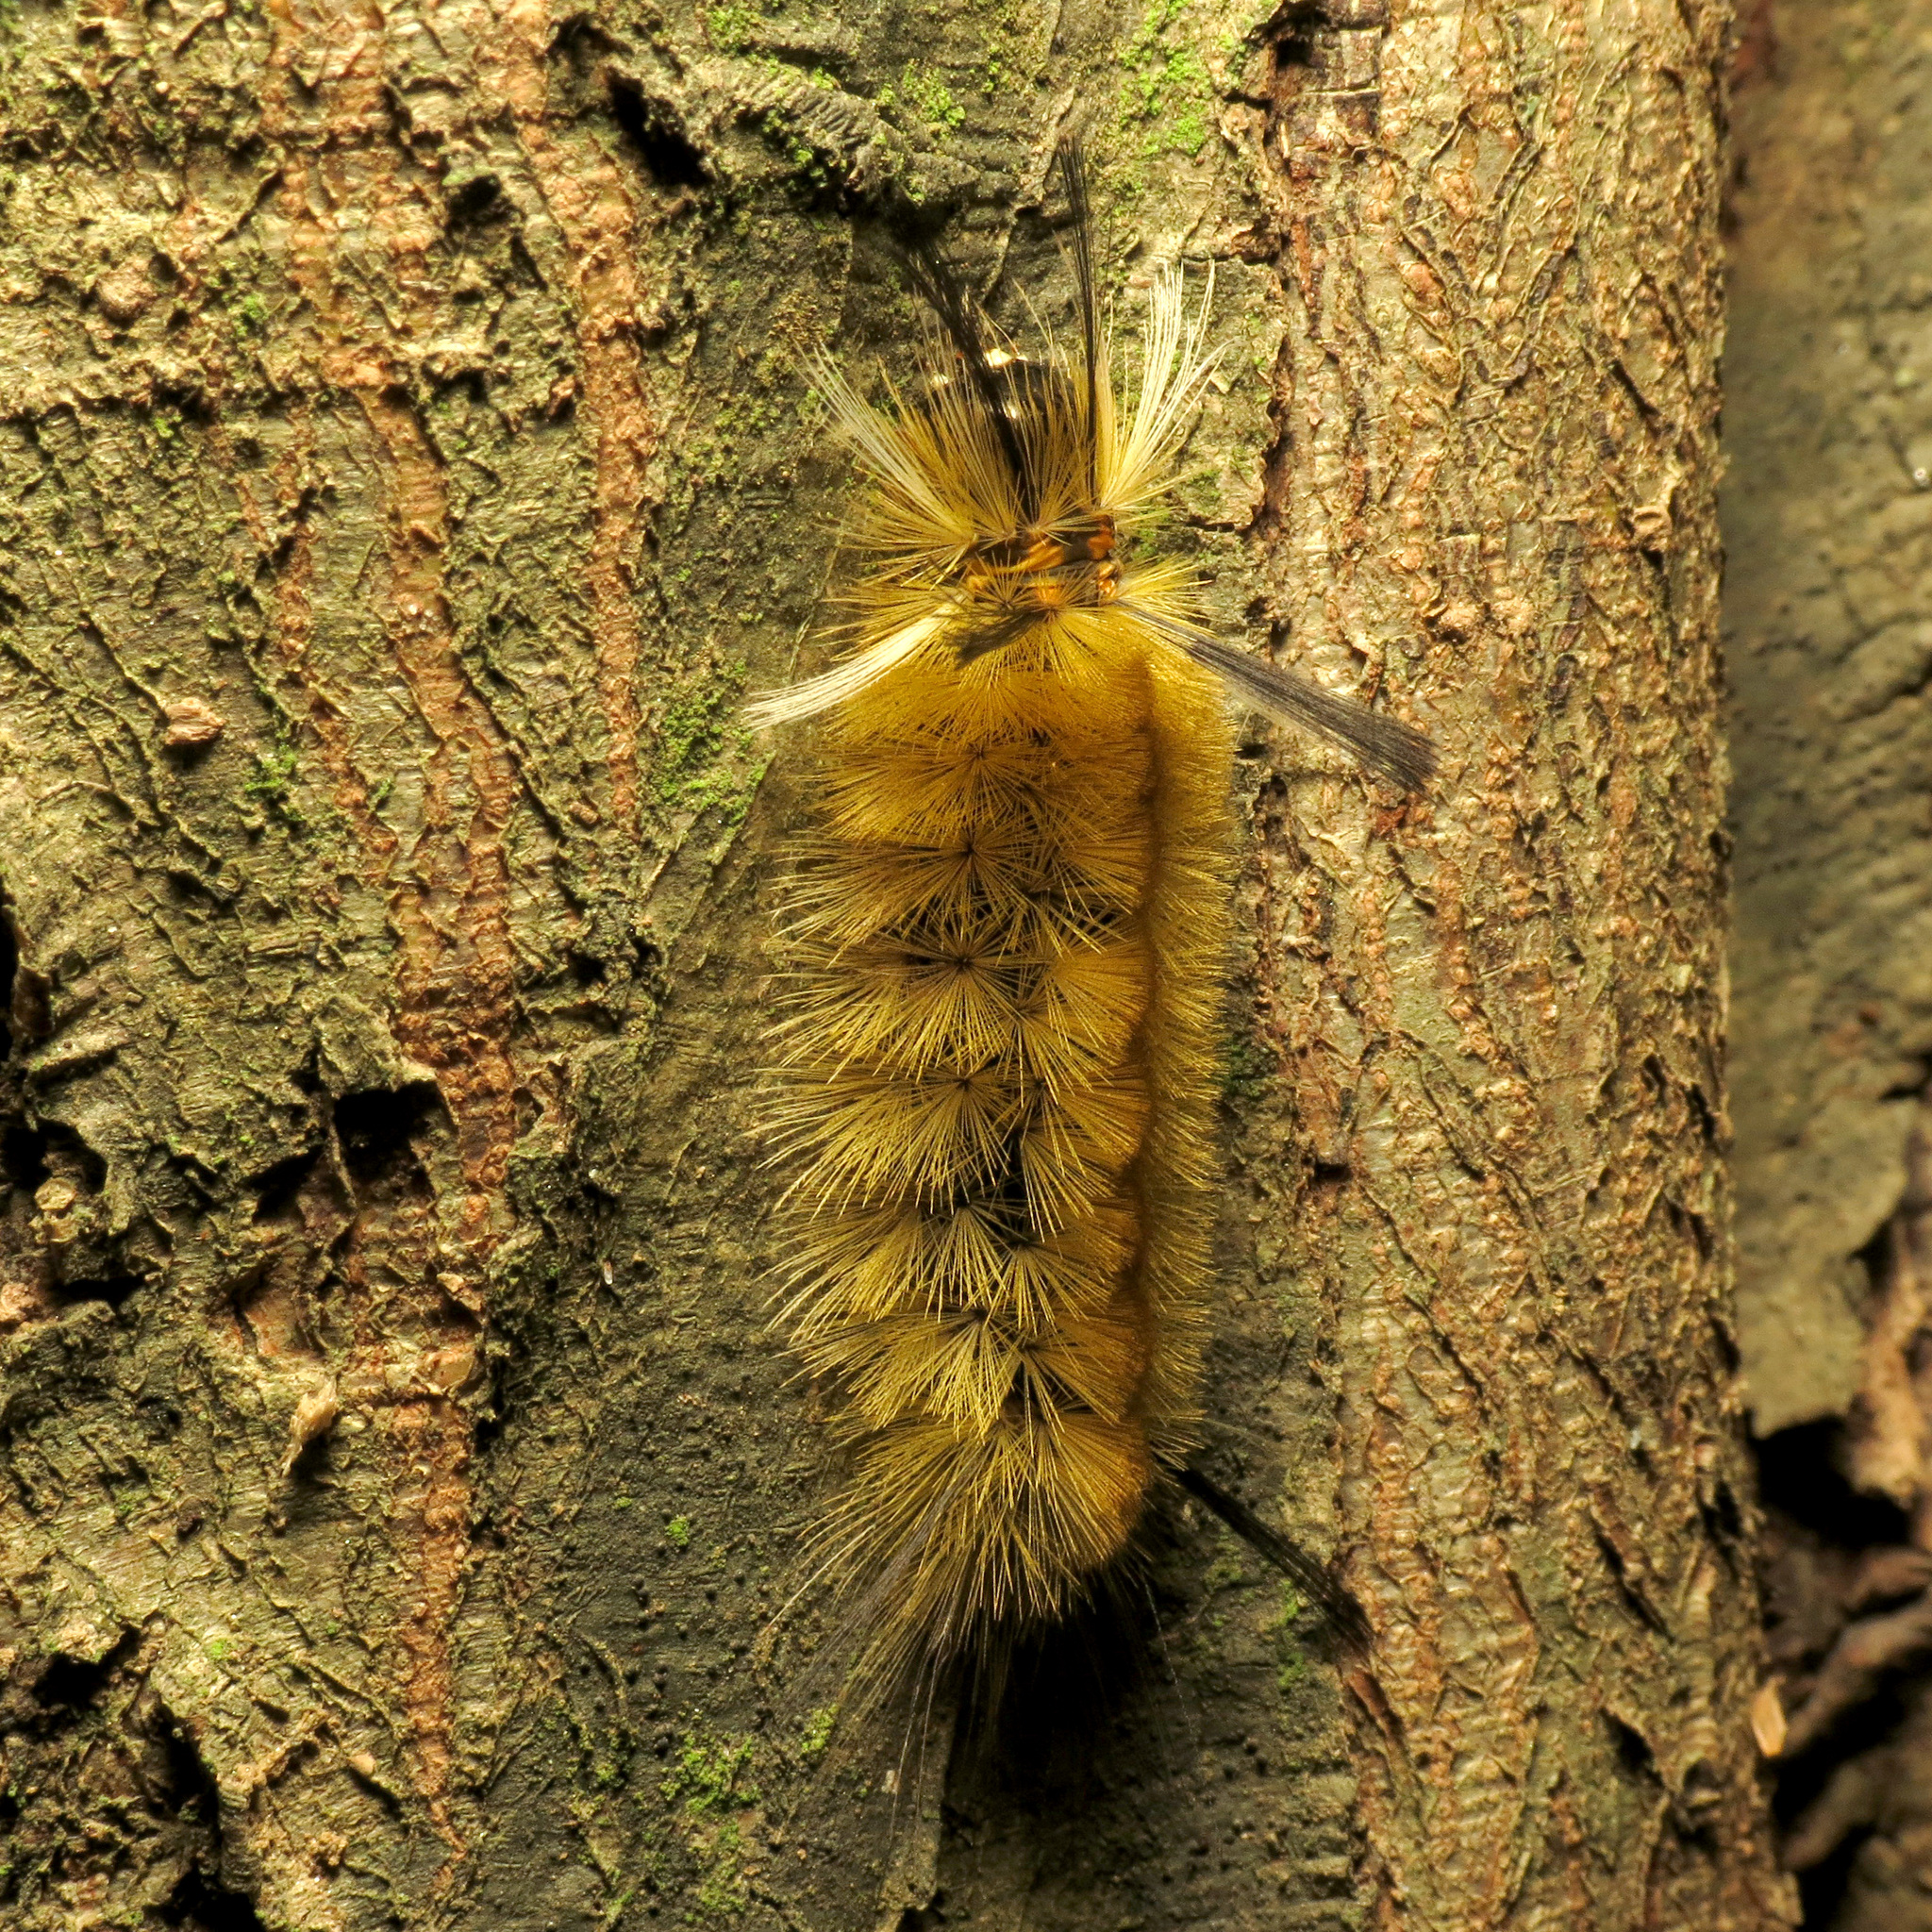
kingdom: Animalia
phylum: Arthropoda
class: Insecta
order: Lepidoptera
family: Erebidae
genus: Halysidota
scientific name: Halysidota tessellaris
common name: Banded tussock moth
